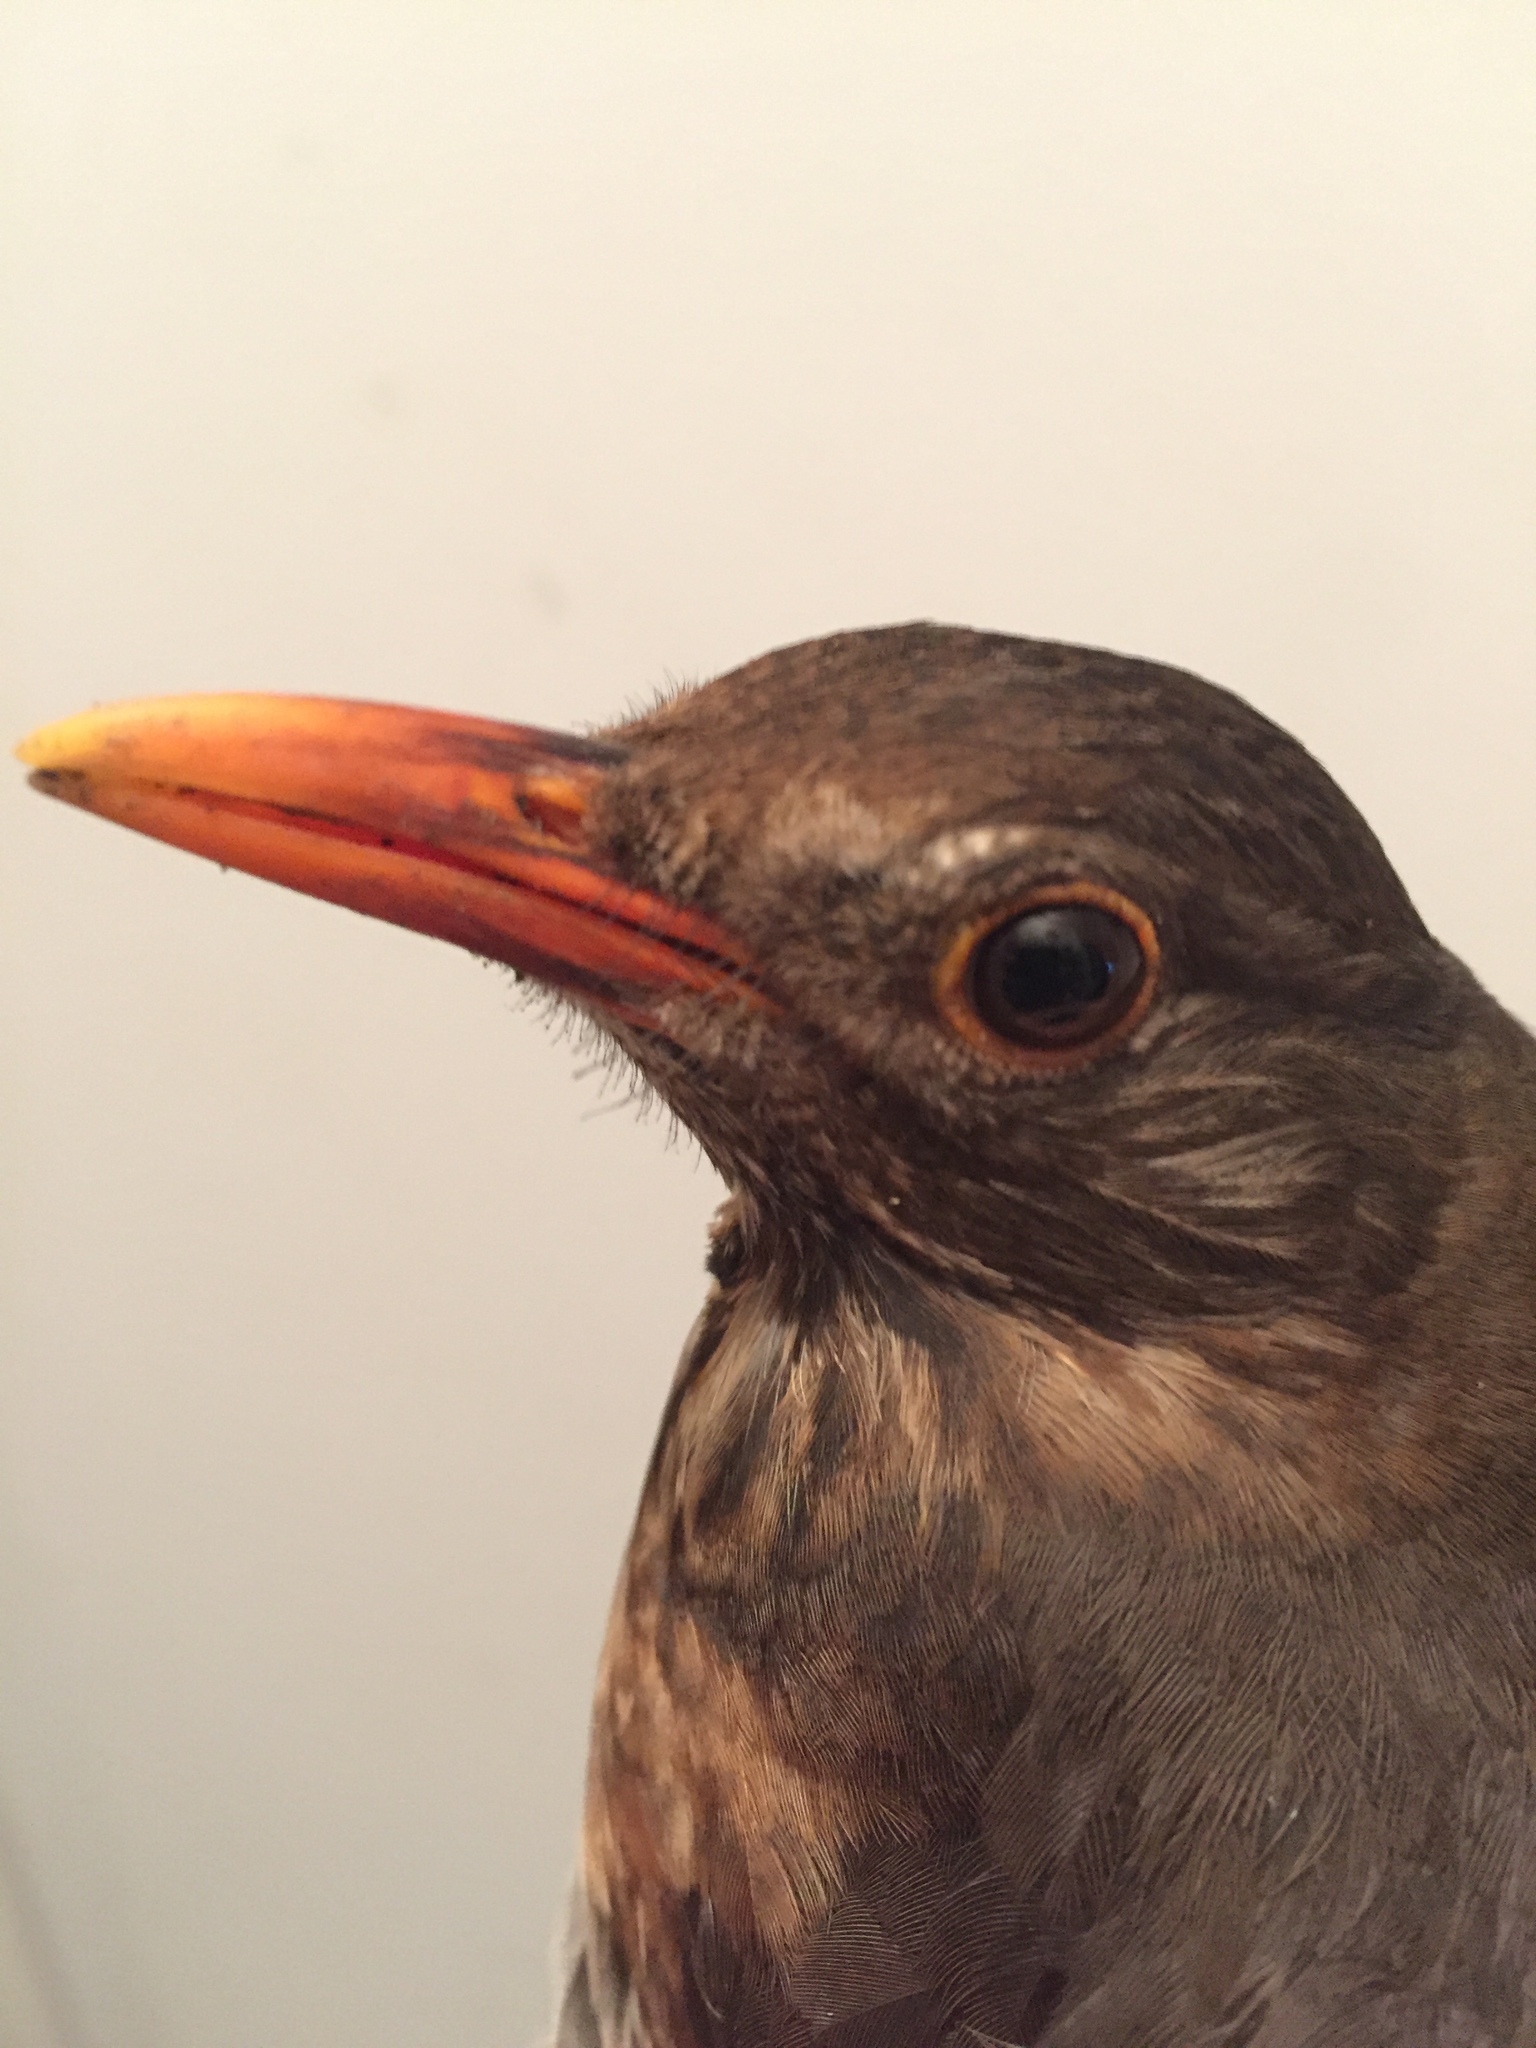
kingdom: Animalia
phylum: Chordata
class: Aves
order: Passeriformes
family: Turdidae
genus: Turdus
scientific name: Turdus merula
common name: Common blackbird
